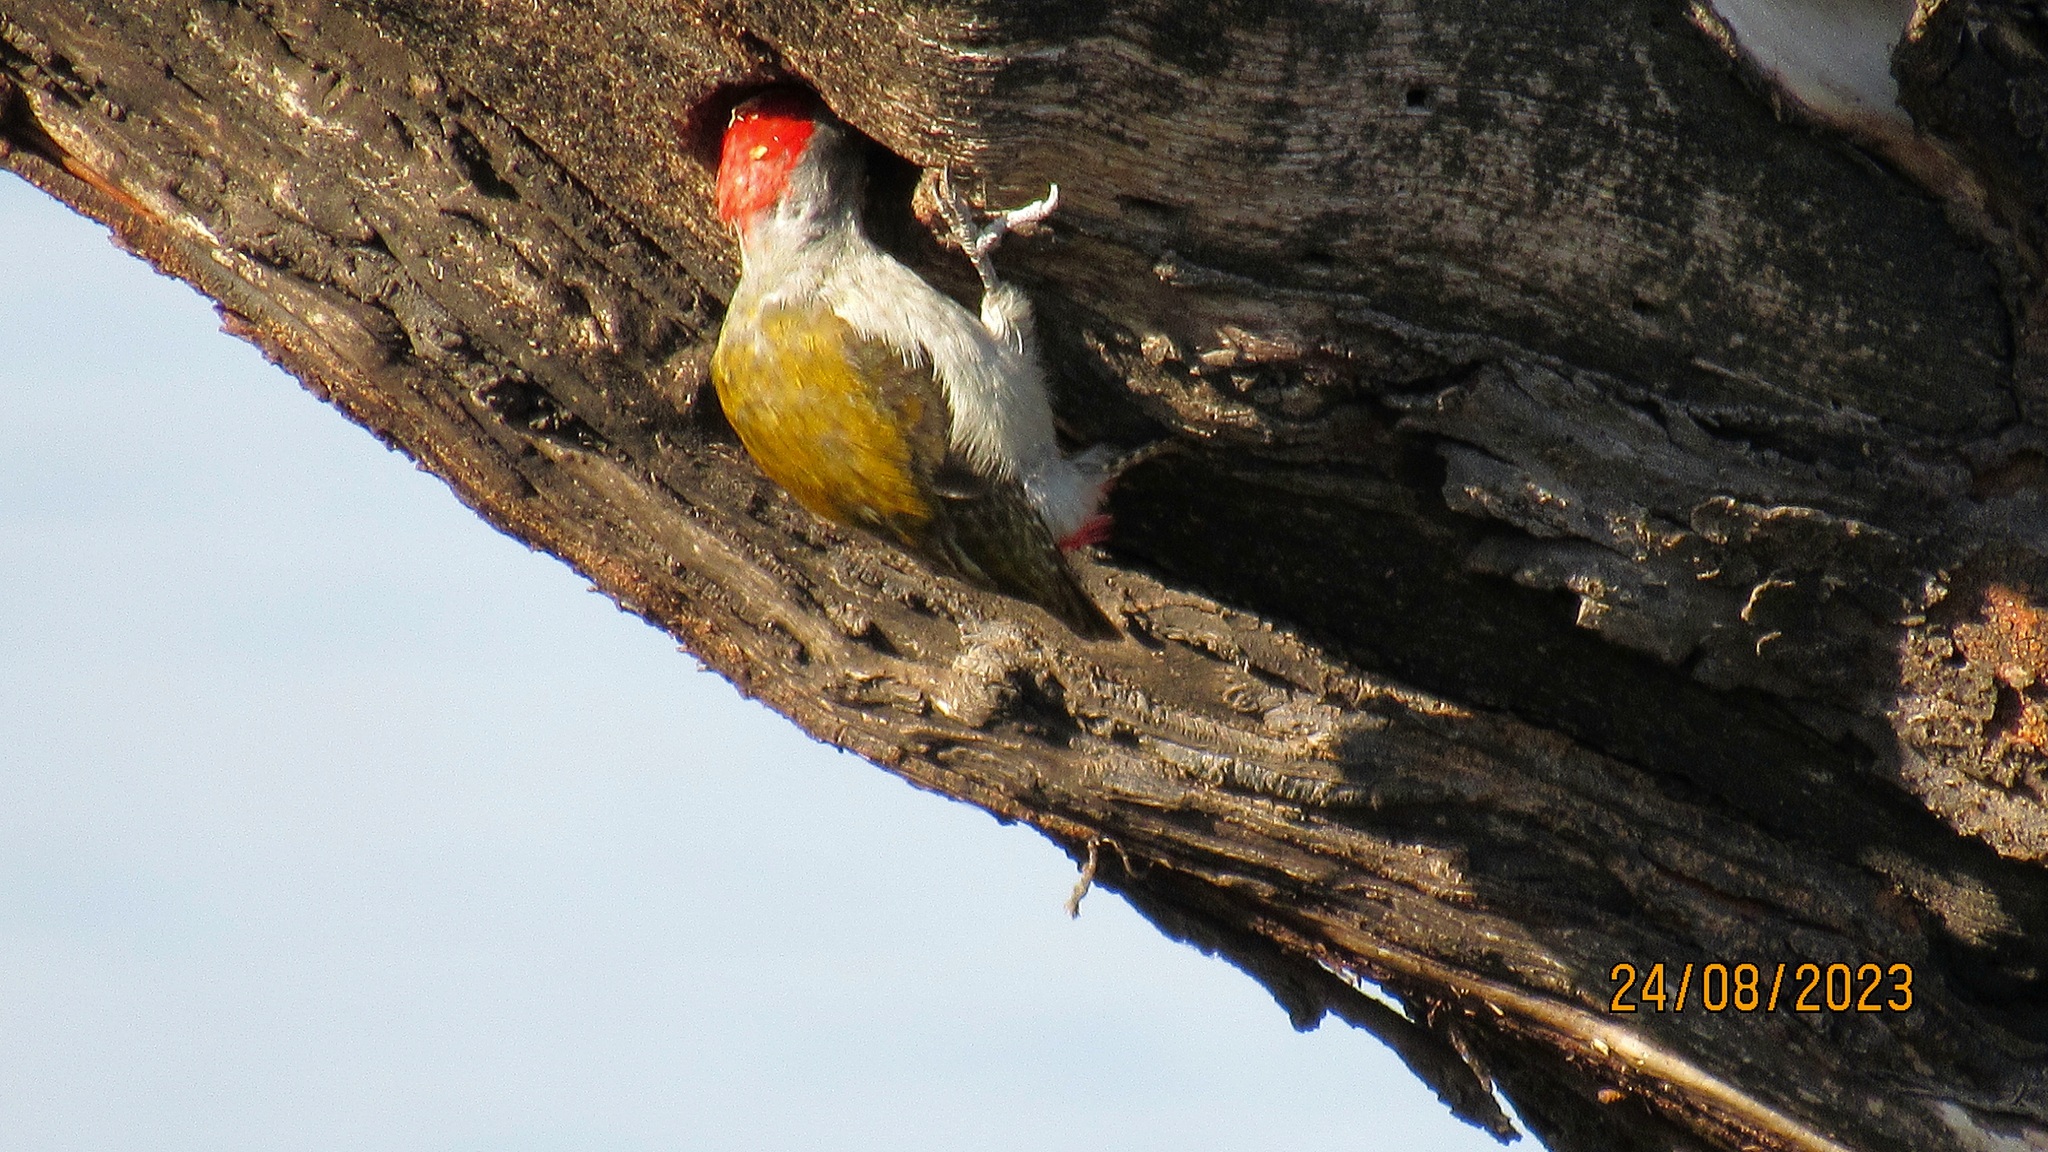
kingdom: Animalia
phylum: Chordata
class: Aves
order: Piciformes
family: Picidae
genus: Dendropicos
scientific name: Dendropicos goertae
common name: African grey woodpecker
